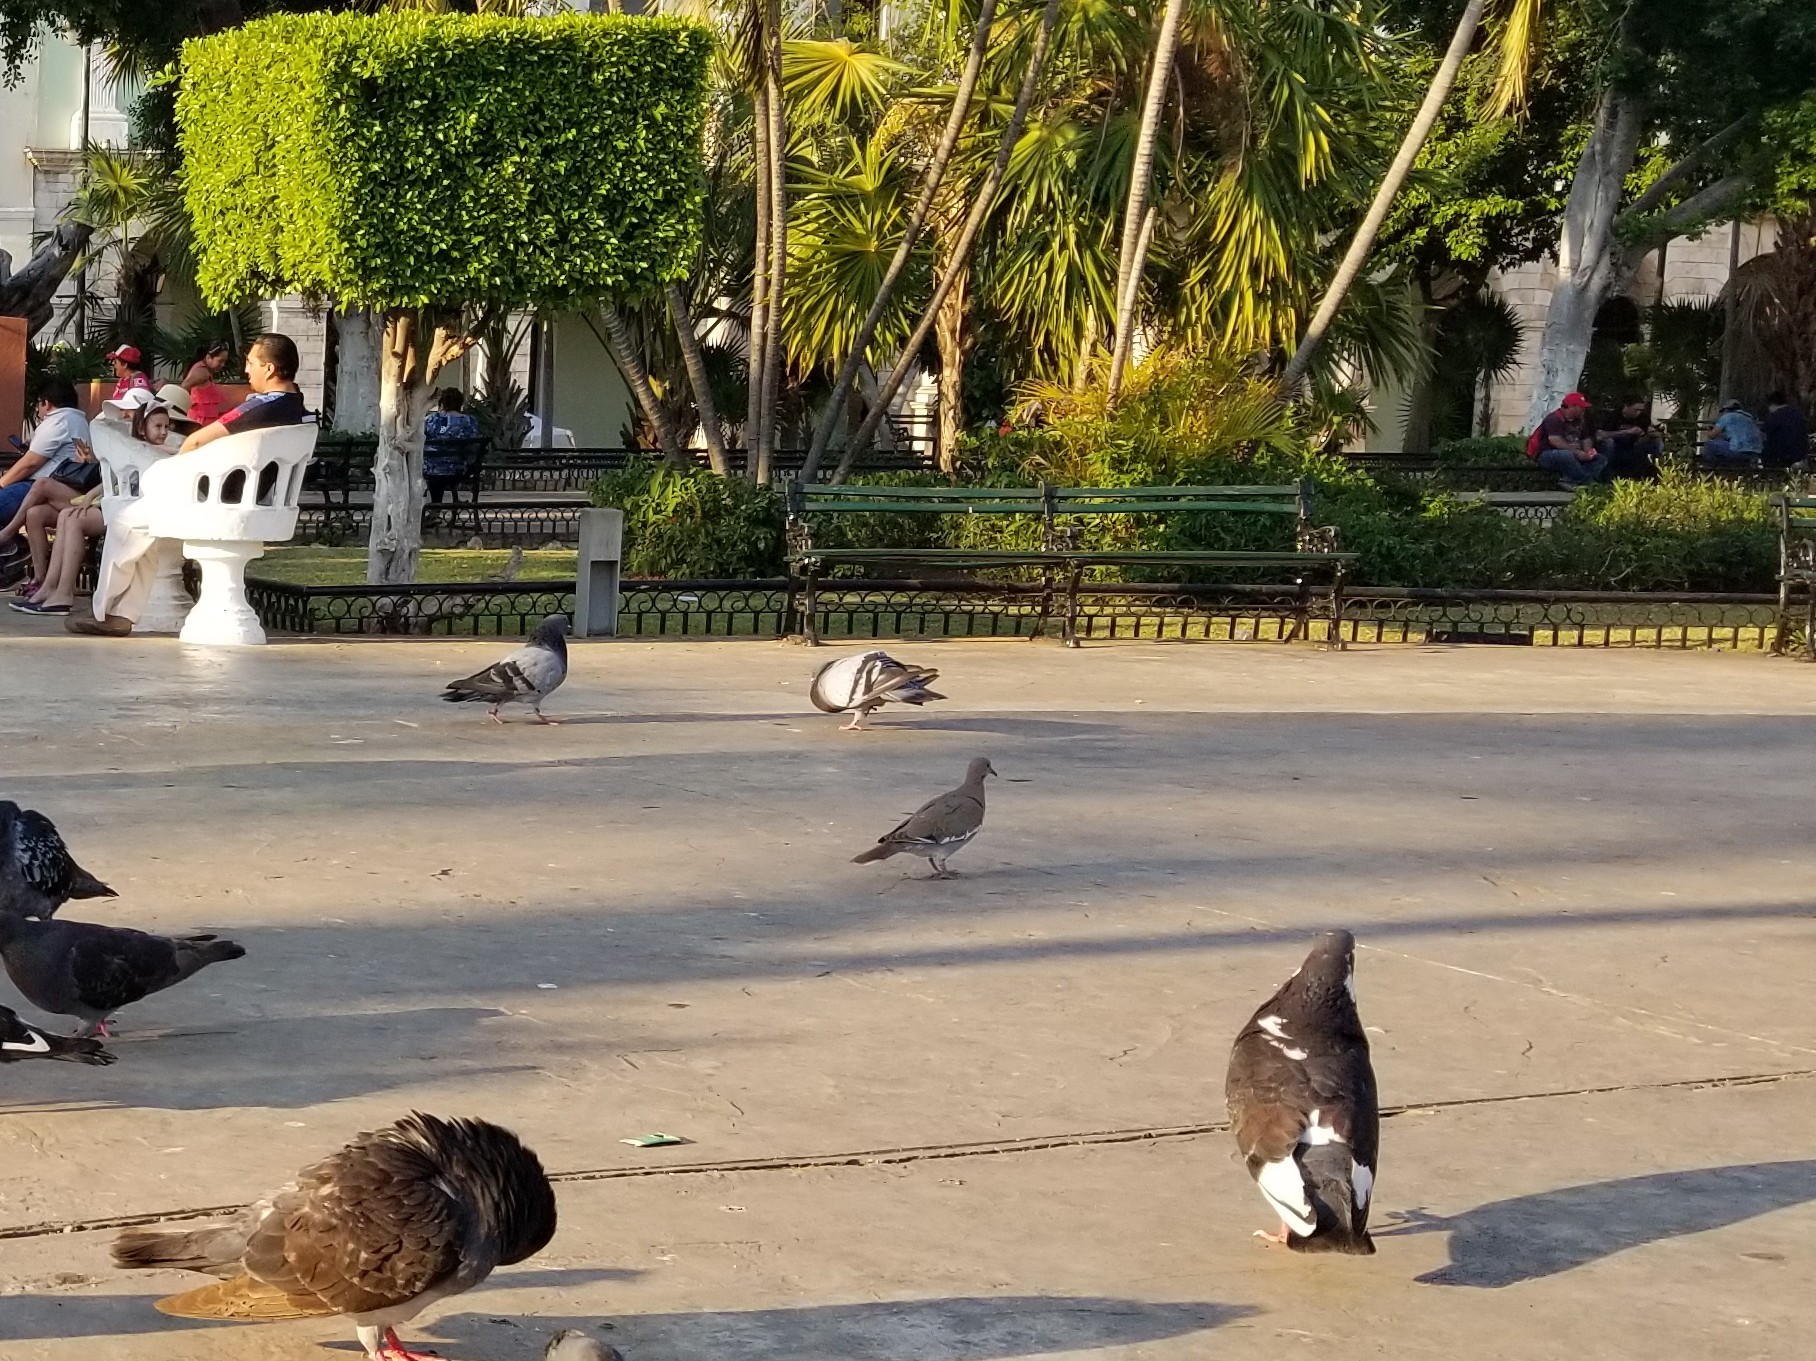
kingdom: Animalia
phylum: Chordata
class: Aves
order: Columbiformes
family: Columbidae
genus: Zenaida
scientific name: Zenaida asiatica
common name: White-winged dove
